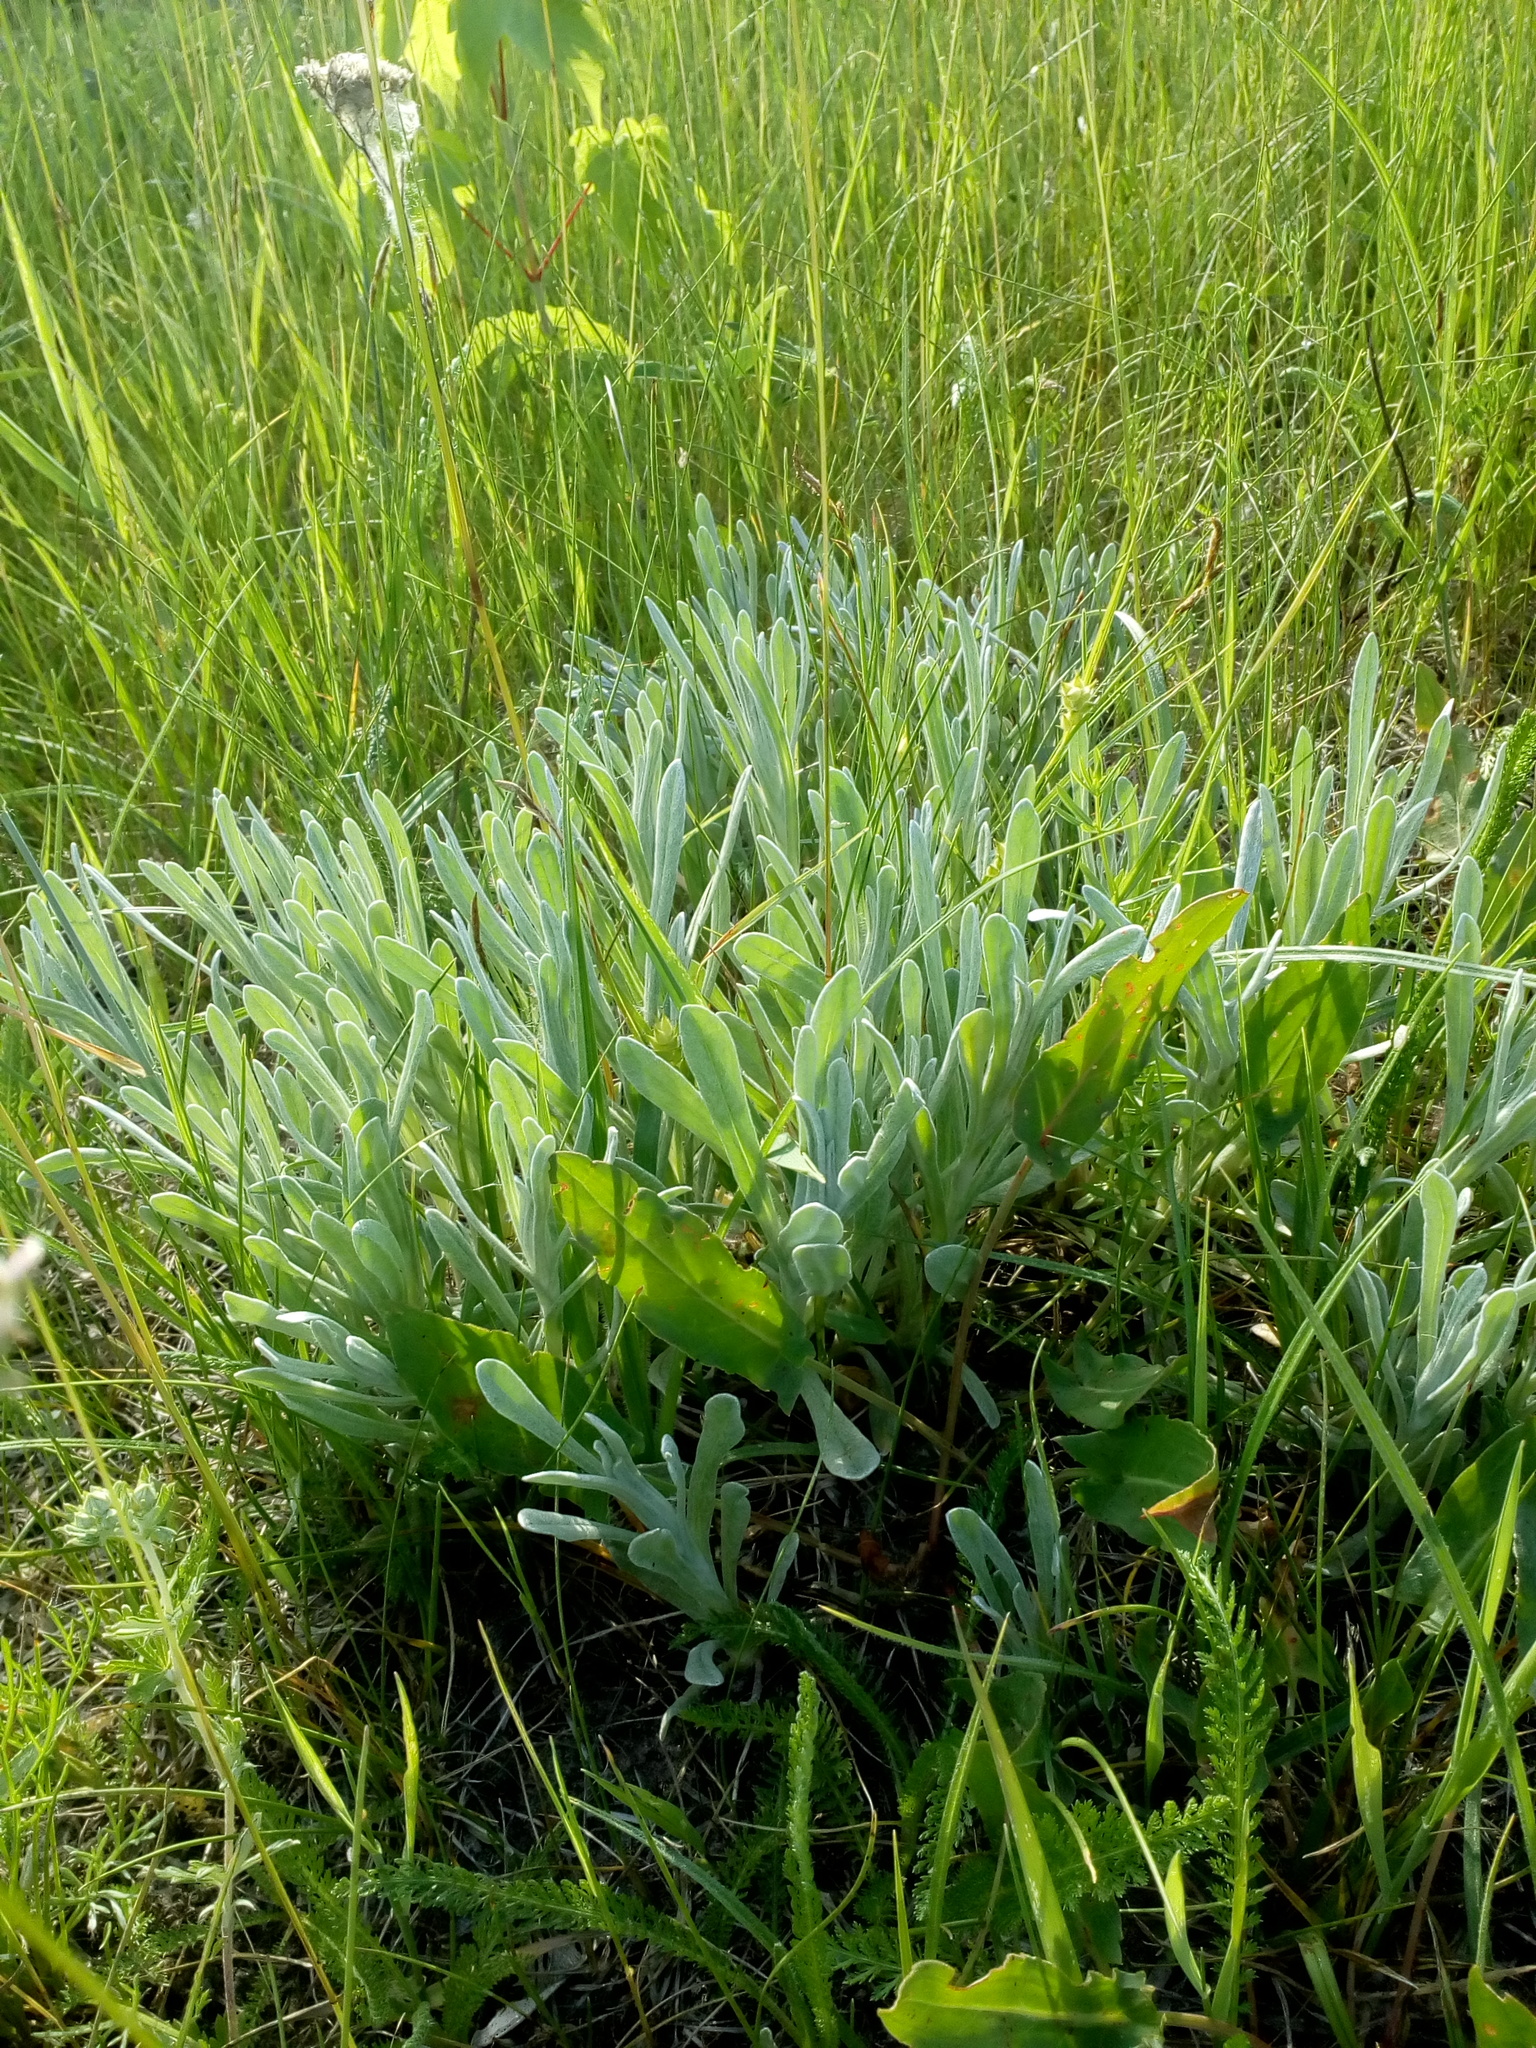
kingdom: Plantae
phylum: Tracheophyta
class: Magnoliopsida
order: Asterales
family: Asteraceae
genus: Helichrysum
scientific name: Helichrysum arenarium
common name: Strawflower
